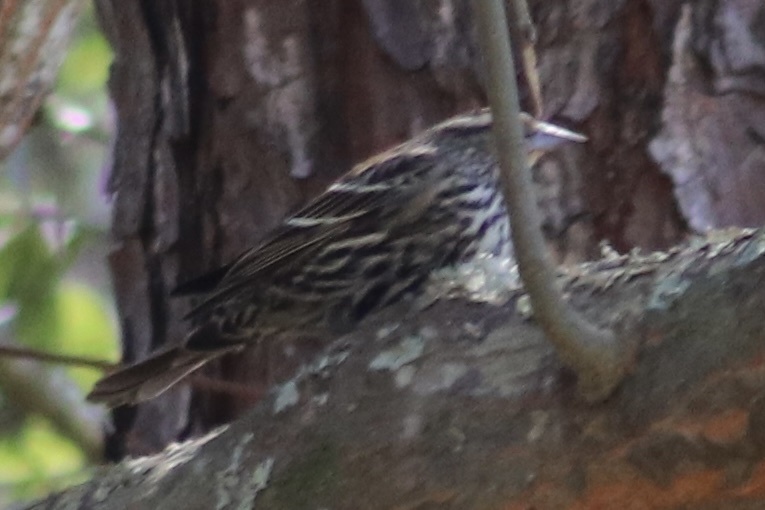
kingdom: Animalia
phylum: Chordata
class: Aves
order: Passeriformes
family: Icteridae
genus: Agelaius
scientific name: Agelaius phoeniceus
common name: Red-winged blackbird
